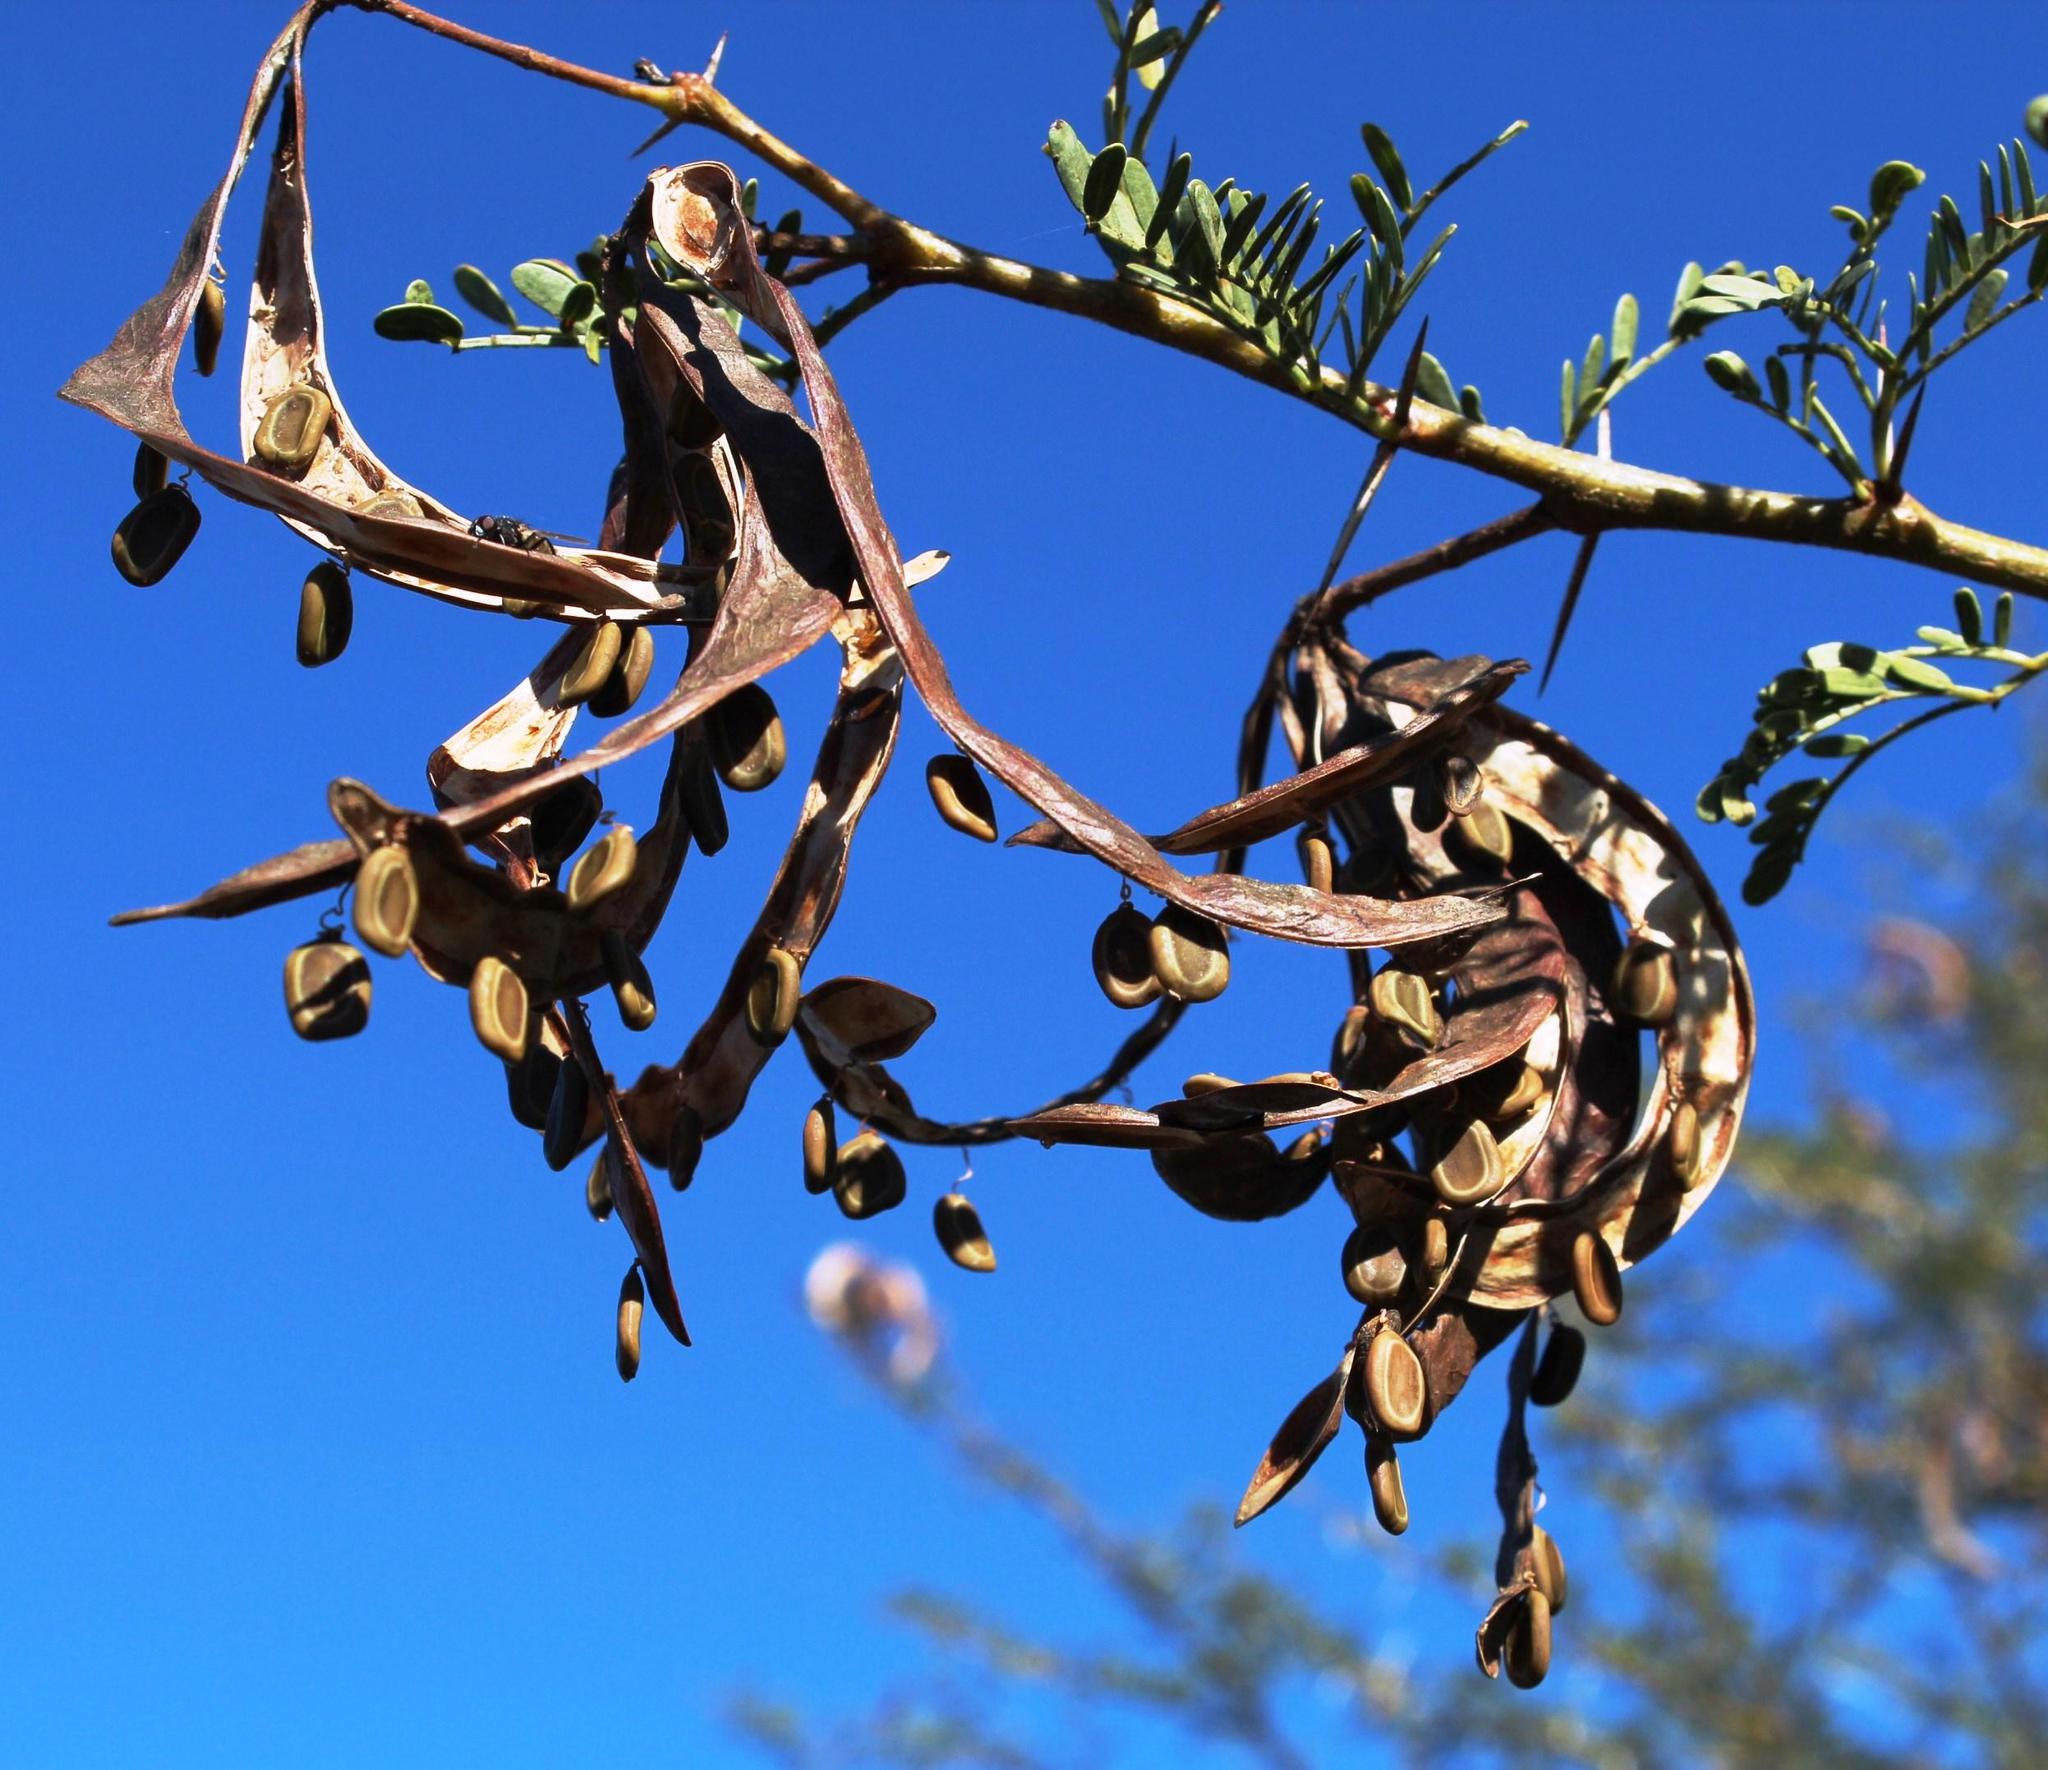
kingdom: Plantae
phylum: Tracheophyta
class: Magnoliopsida
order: Fabales
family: Fabaceae
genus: Vachellia
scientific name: Vachellia karroo
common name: Sweet thorn
